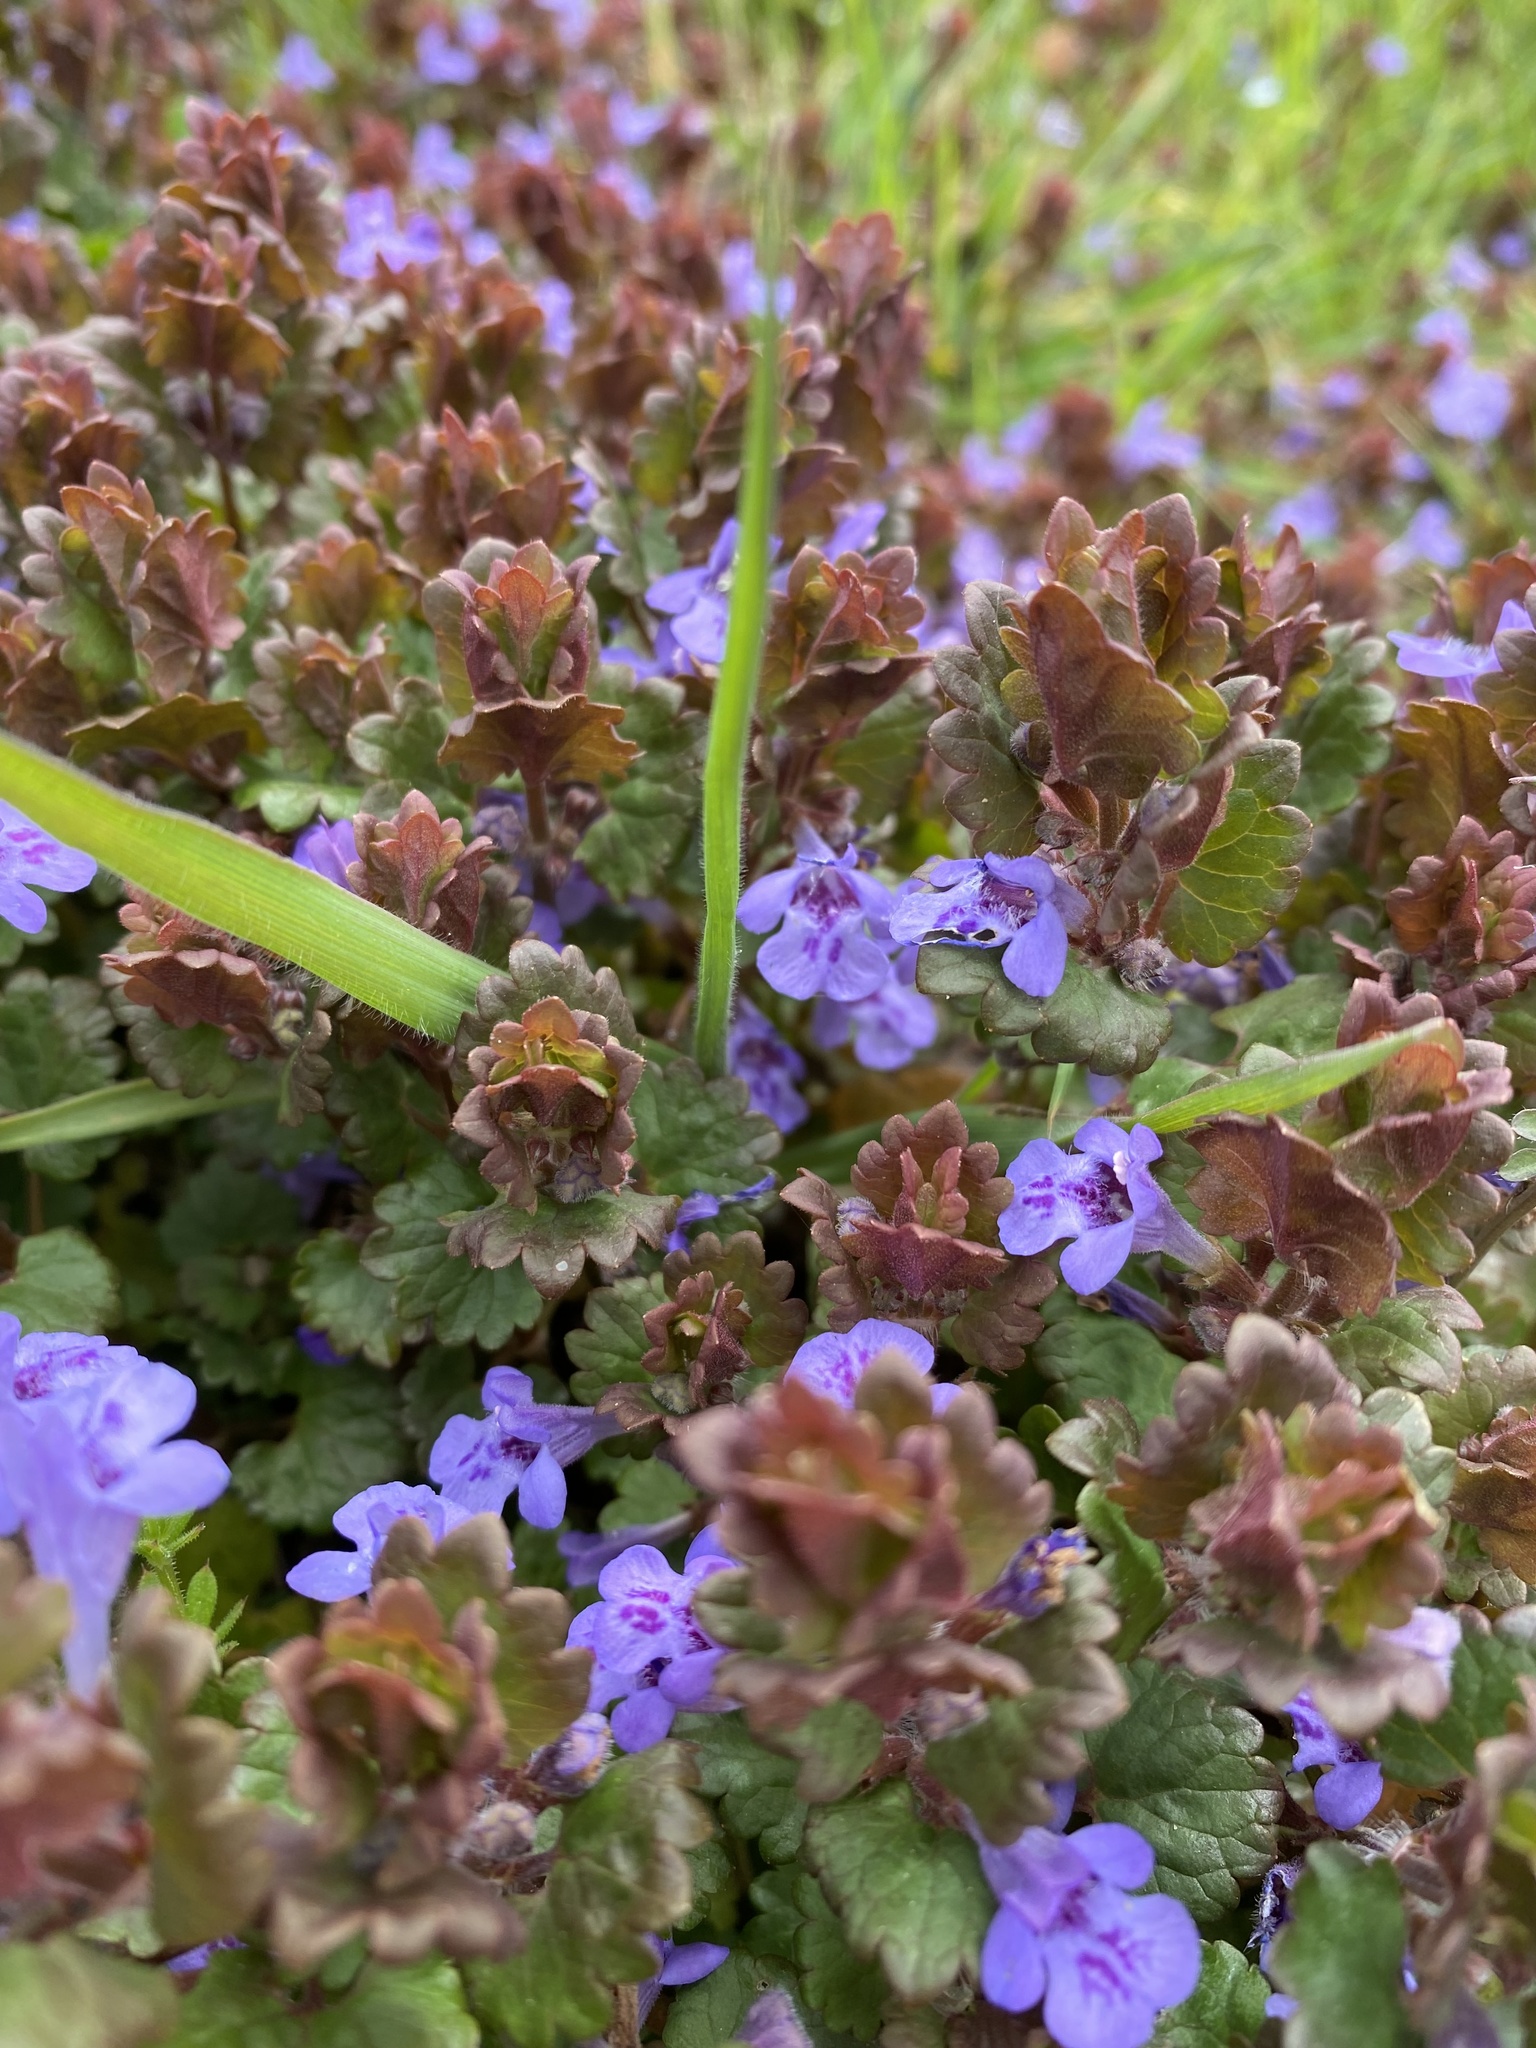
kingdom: Plantae
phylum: Tracheophyta
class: Magnoliopsida
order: Lamiales
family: Lamiaceae
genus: Glechoma
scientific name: Glechoma hederacea
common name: Ground ivy
